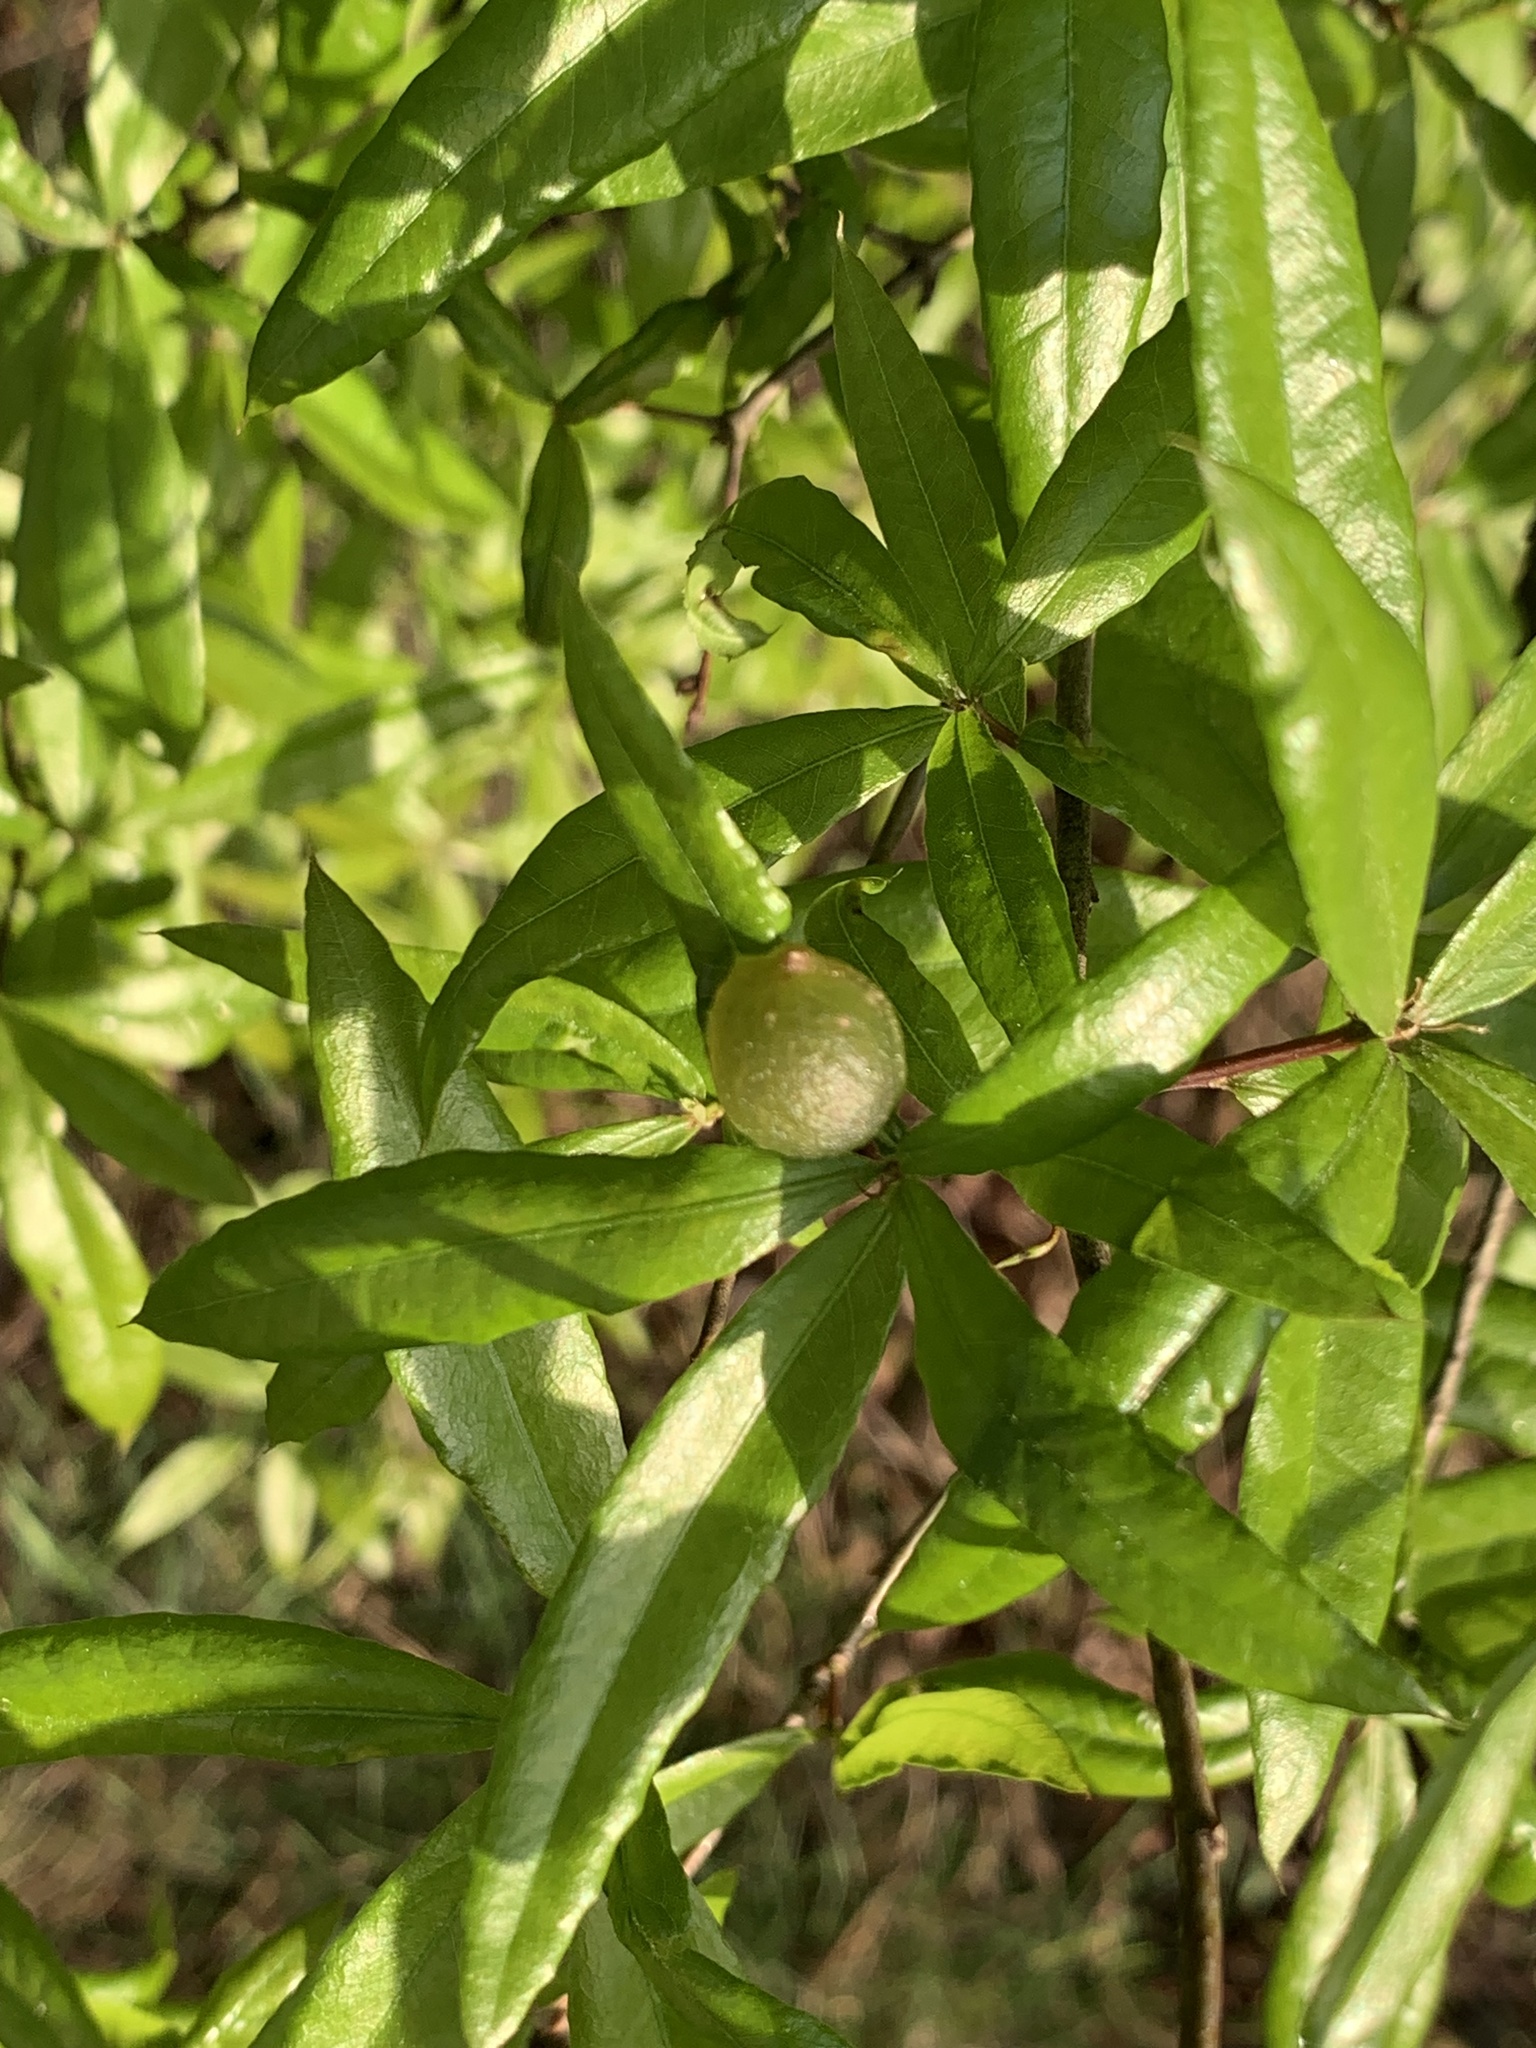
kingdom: Animalia
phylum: Arthropoda
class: Insecta
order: Hymenoptera
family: Cynipidae
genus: Dryocosmus
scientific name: Dryocosmus
